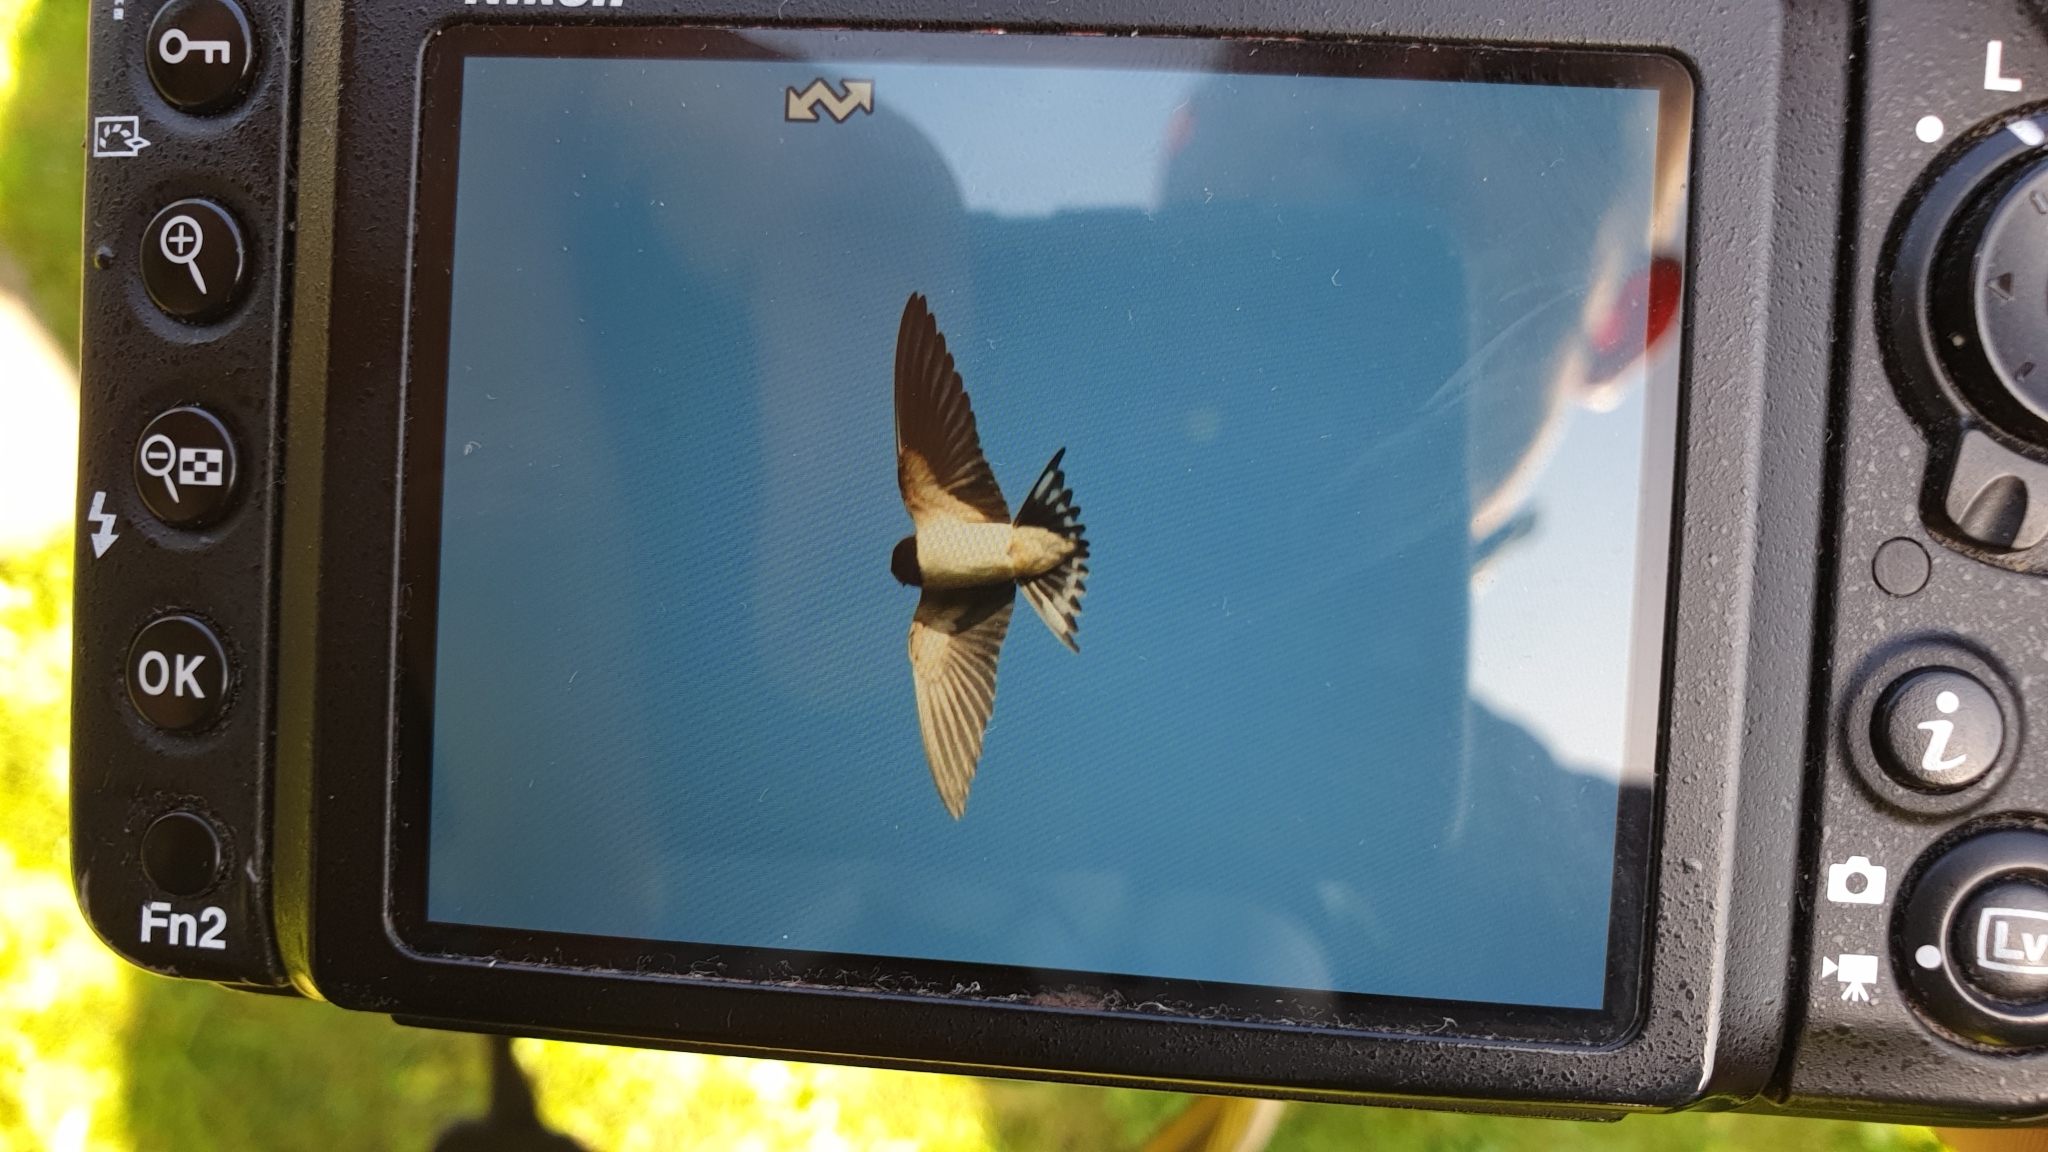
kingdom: Animalia
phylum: Chordata
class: Aves
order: Passeriformes
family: Hirundinidae
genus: Hirundo
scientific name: Hirundo rustica
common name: Barn swallow
